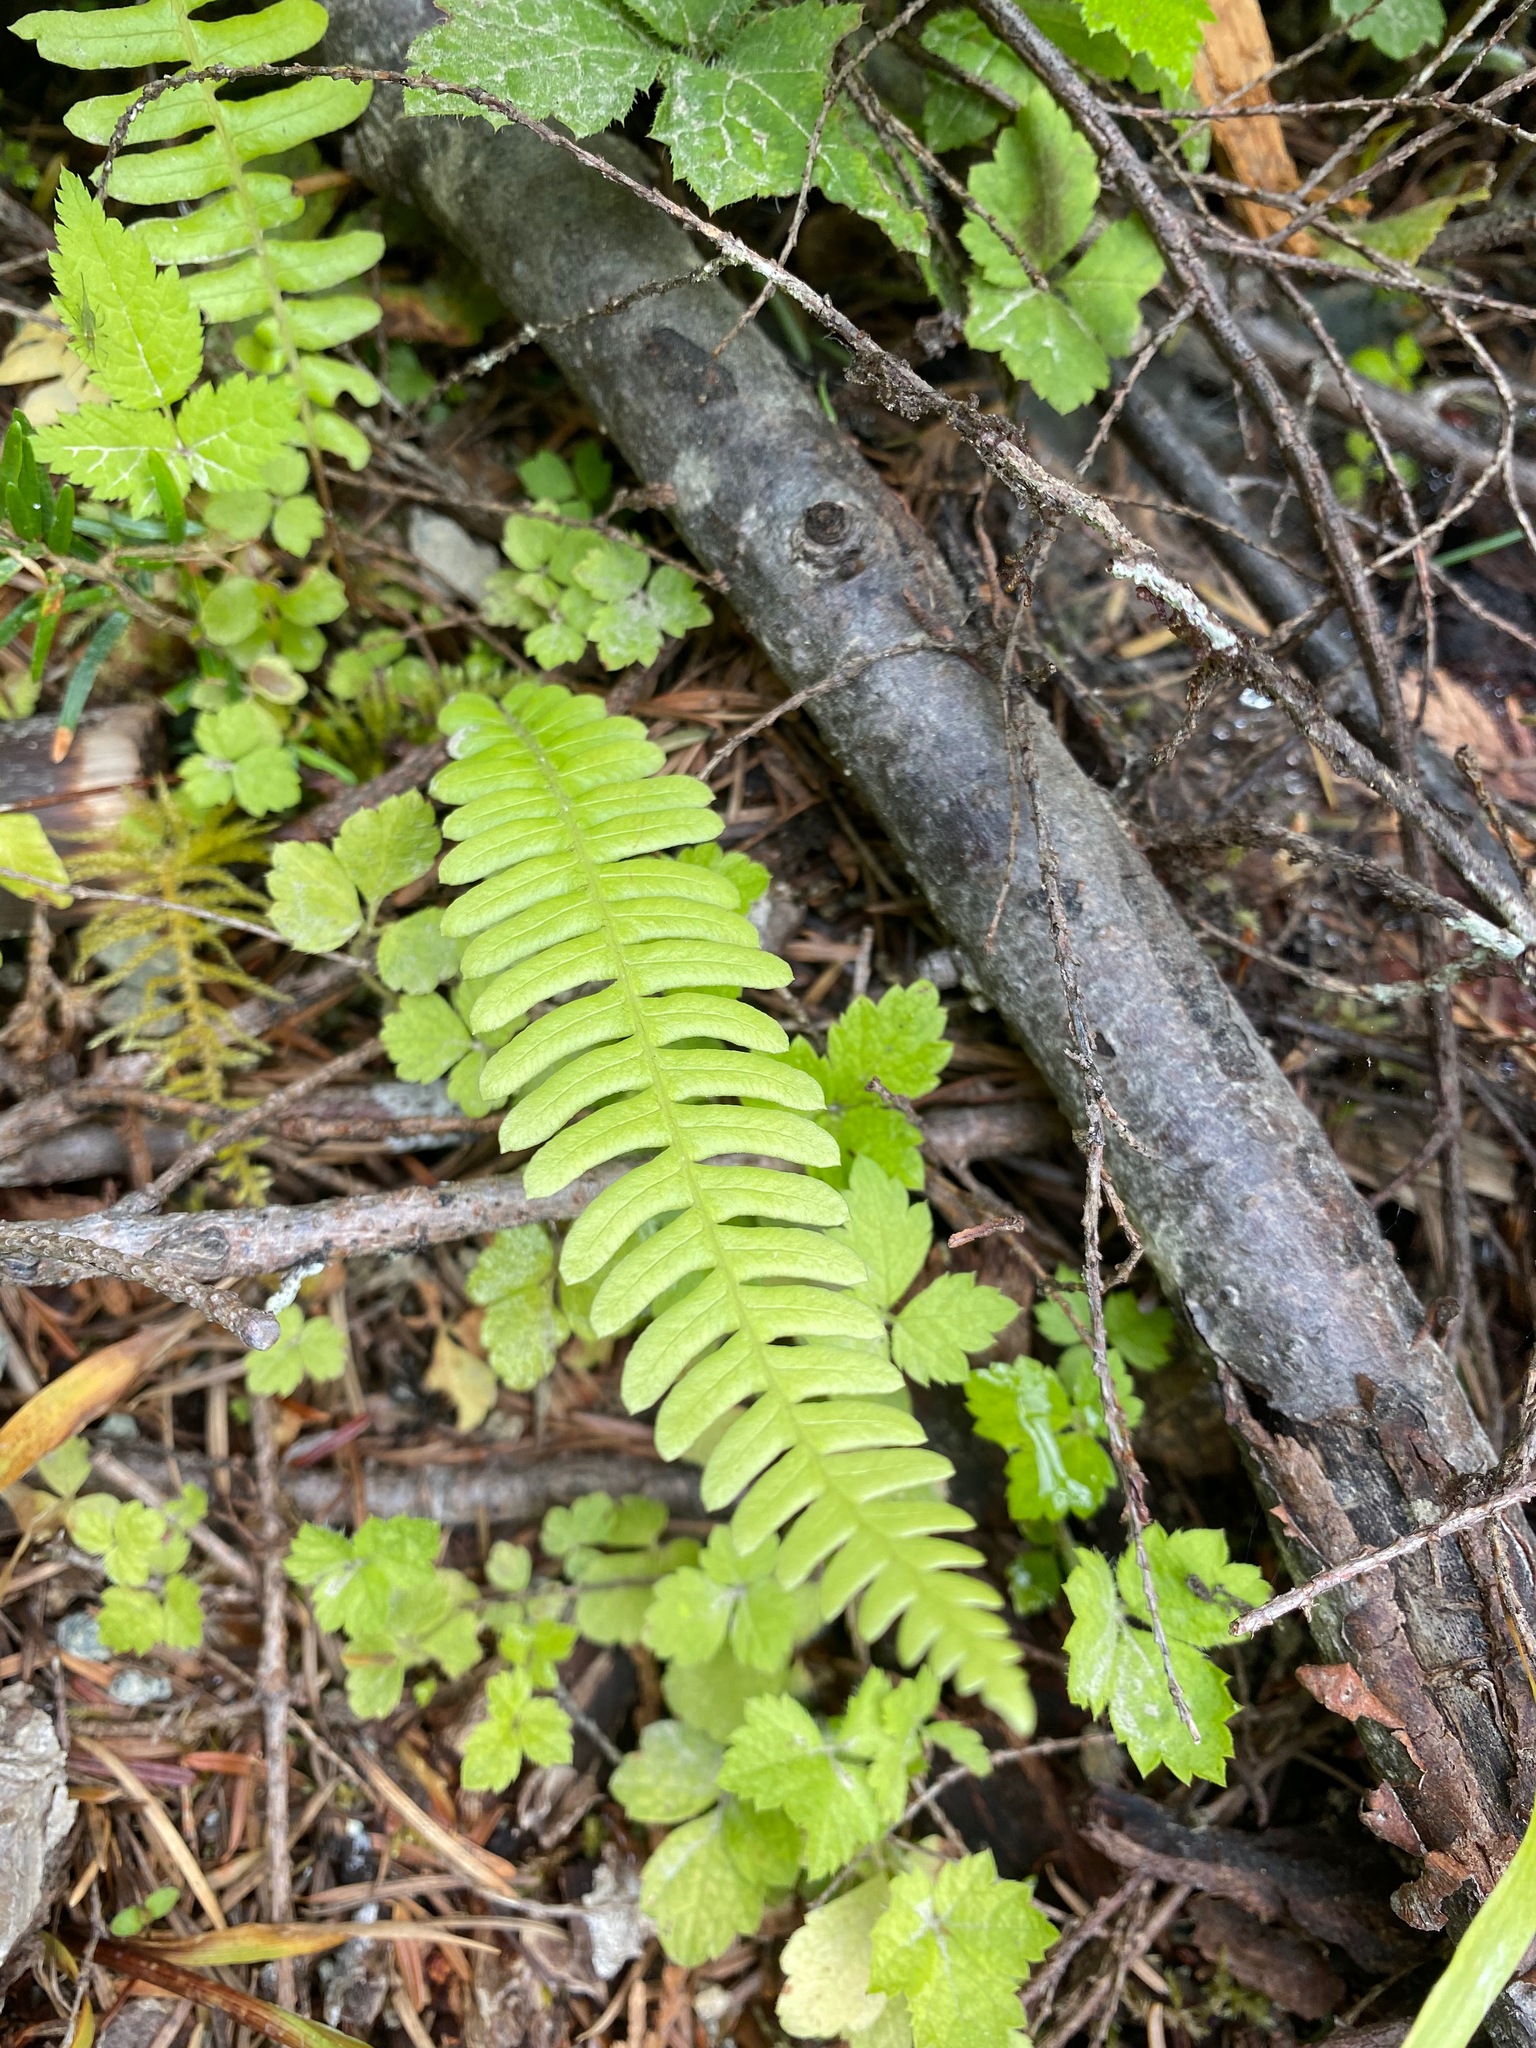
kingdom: Plantae
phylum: Tracheophyta
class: Polypodiopsida
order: Polypodiales
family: Blechnaceae
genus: Struthiopteris
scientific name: Struthiopteris spicant
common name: Deer fern
